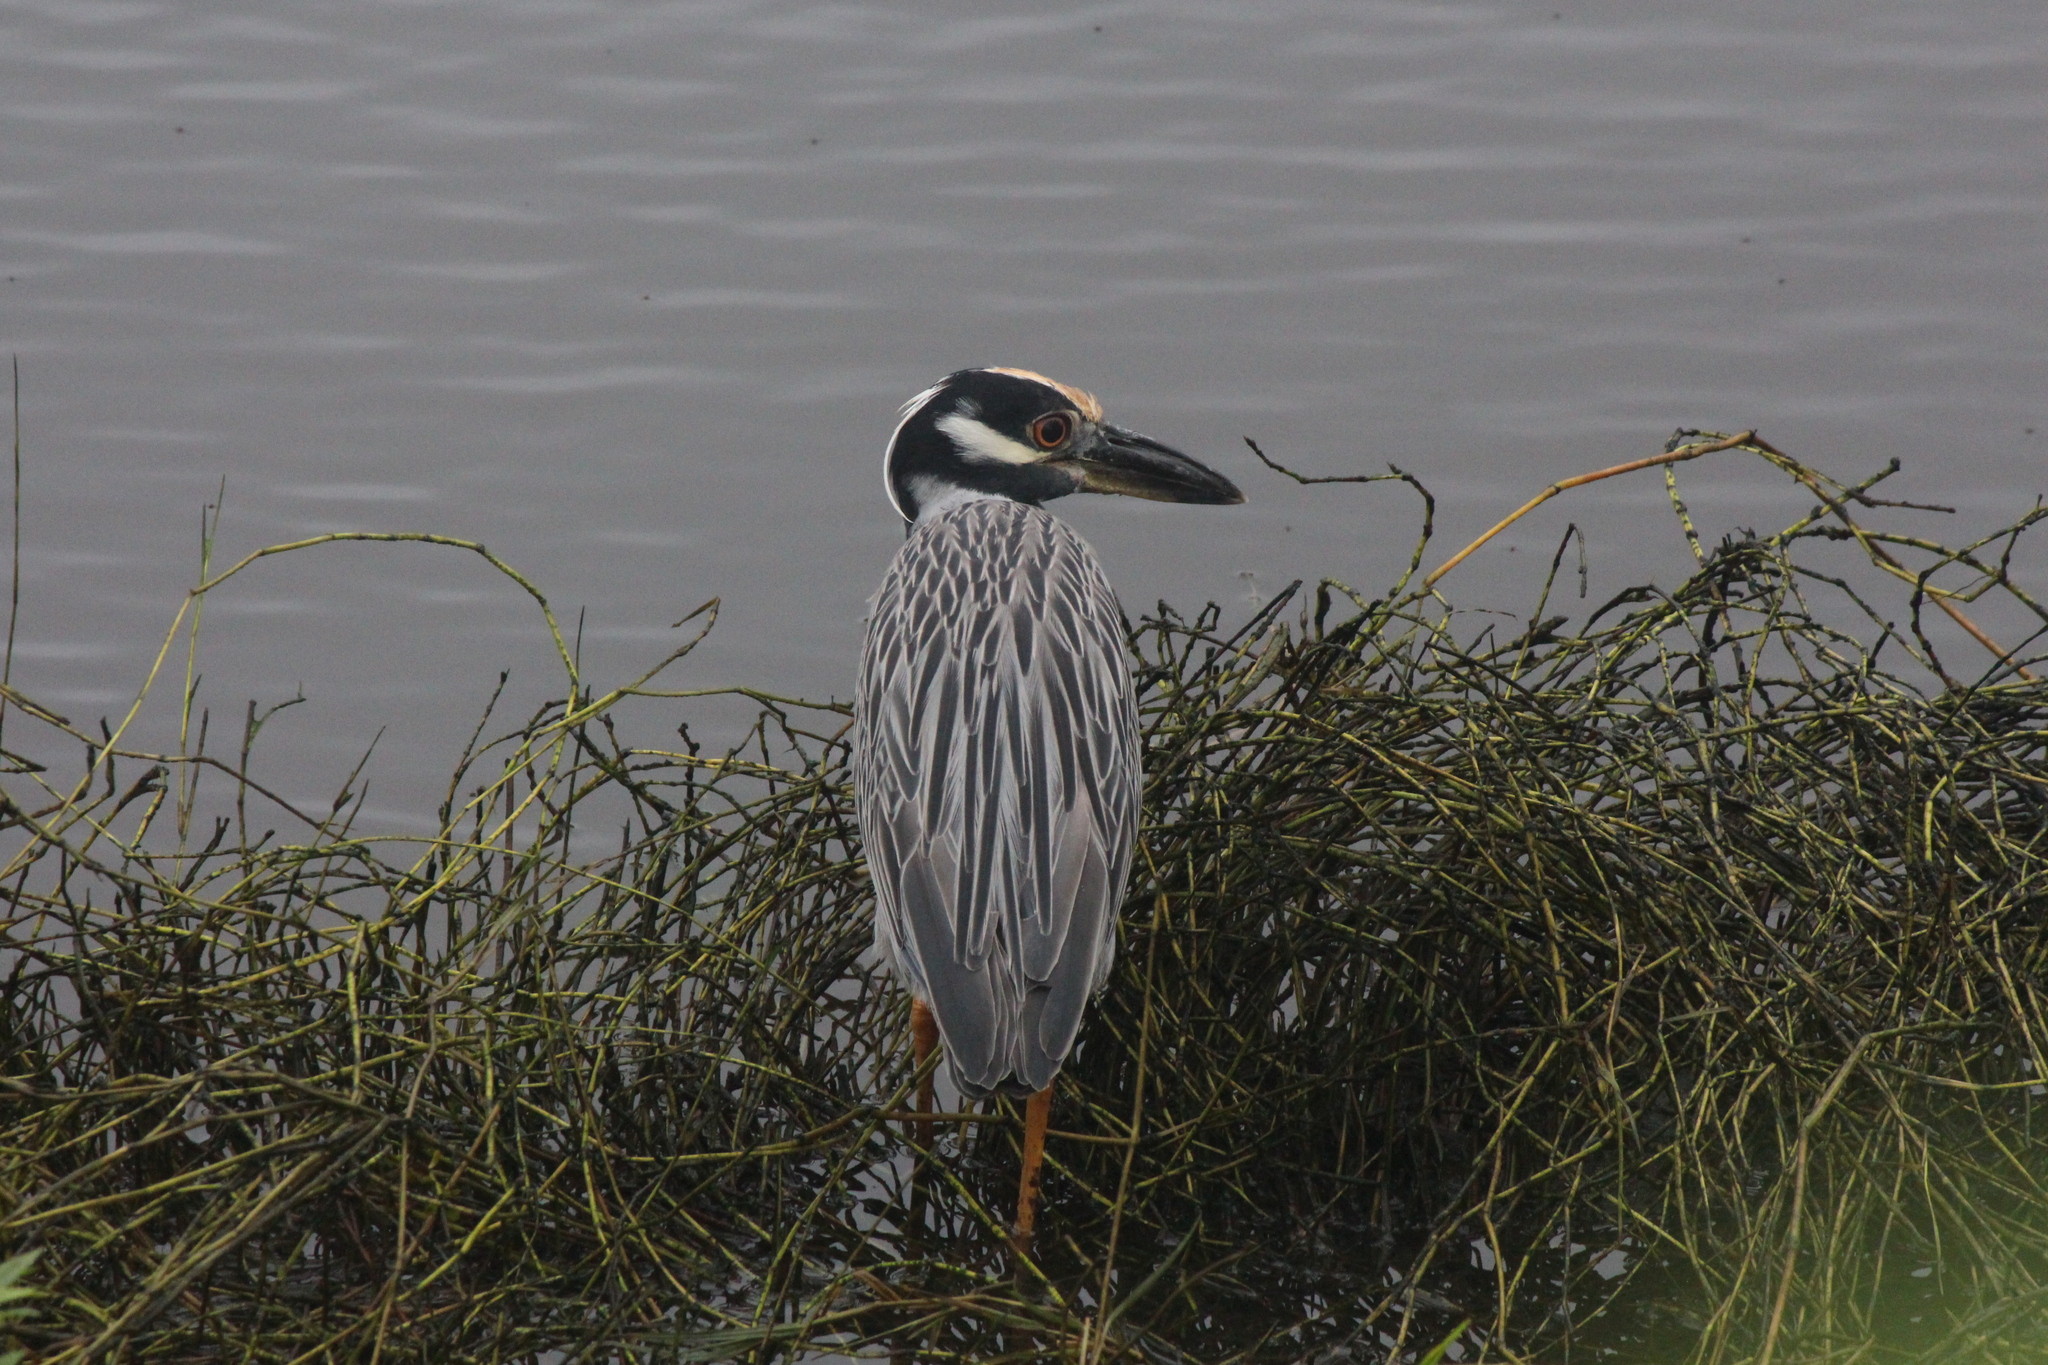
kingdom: Animalia
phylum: Chordata
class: Aves
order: Pelecaniformes
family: Ardeidae
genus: Nyctanassa
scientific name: Nyctanassa violacea
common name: Yellow-crowned night heron
